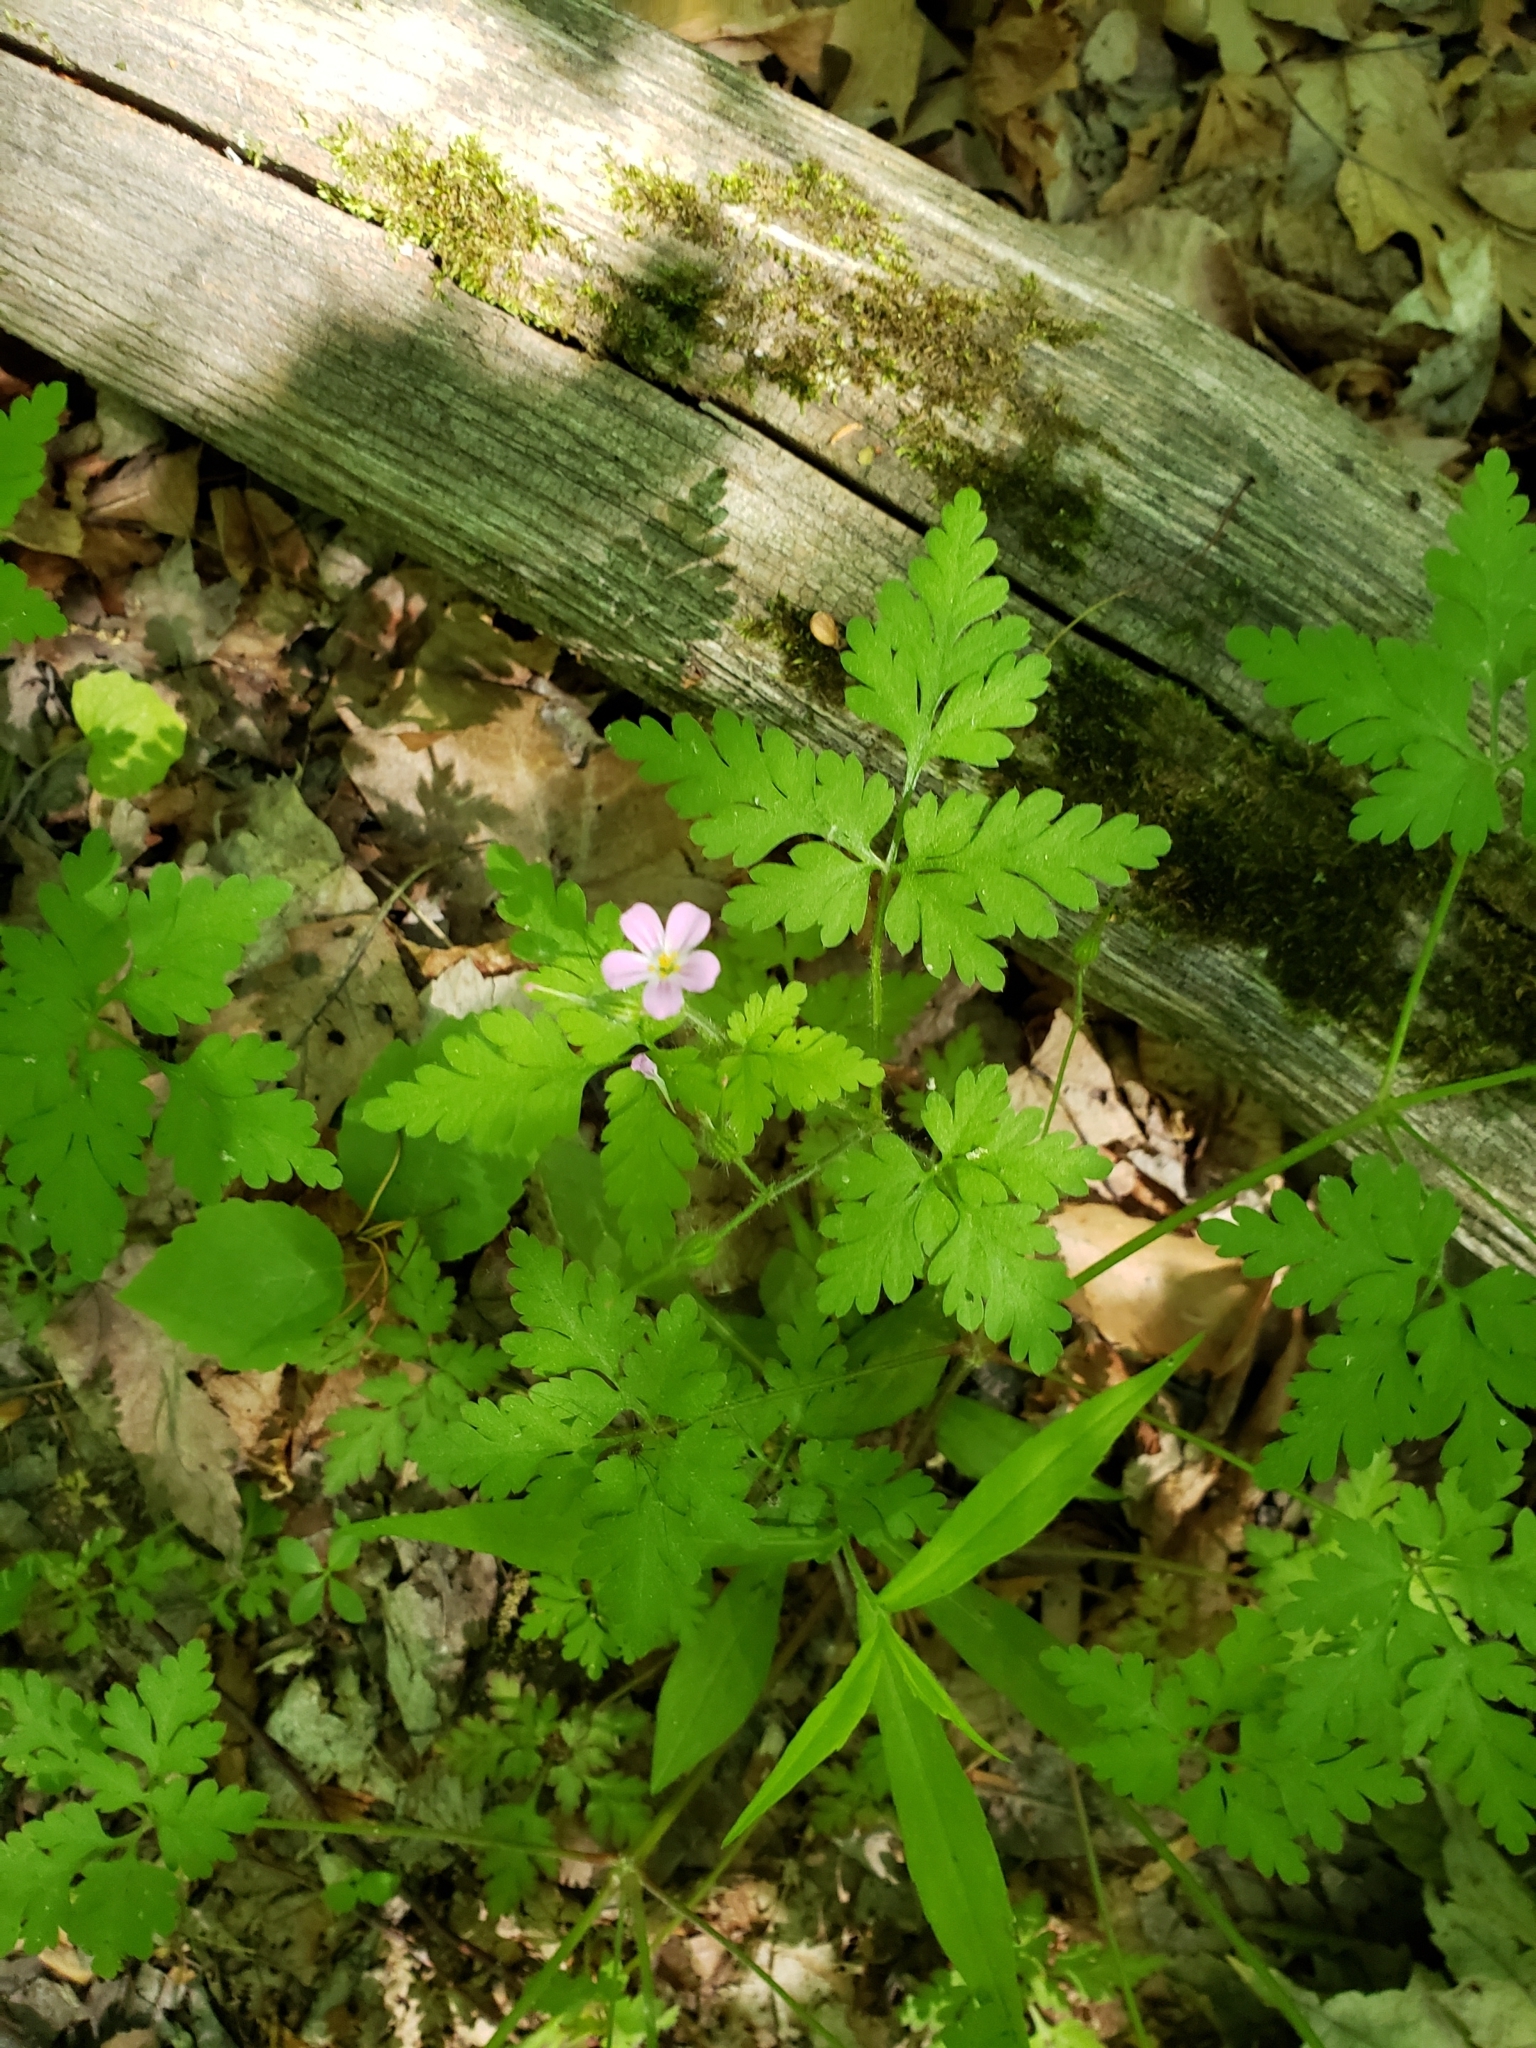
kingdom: Plantae
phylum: Tracheophyta
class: Magnoliopsida
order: Geraniales
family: Geraniaceae
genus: Geranium
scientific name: Geranium robertianum
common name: Herb-robert
